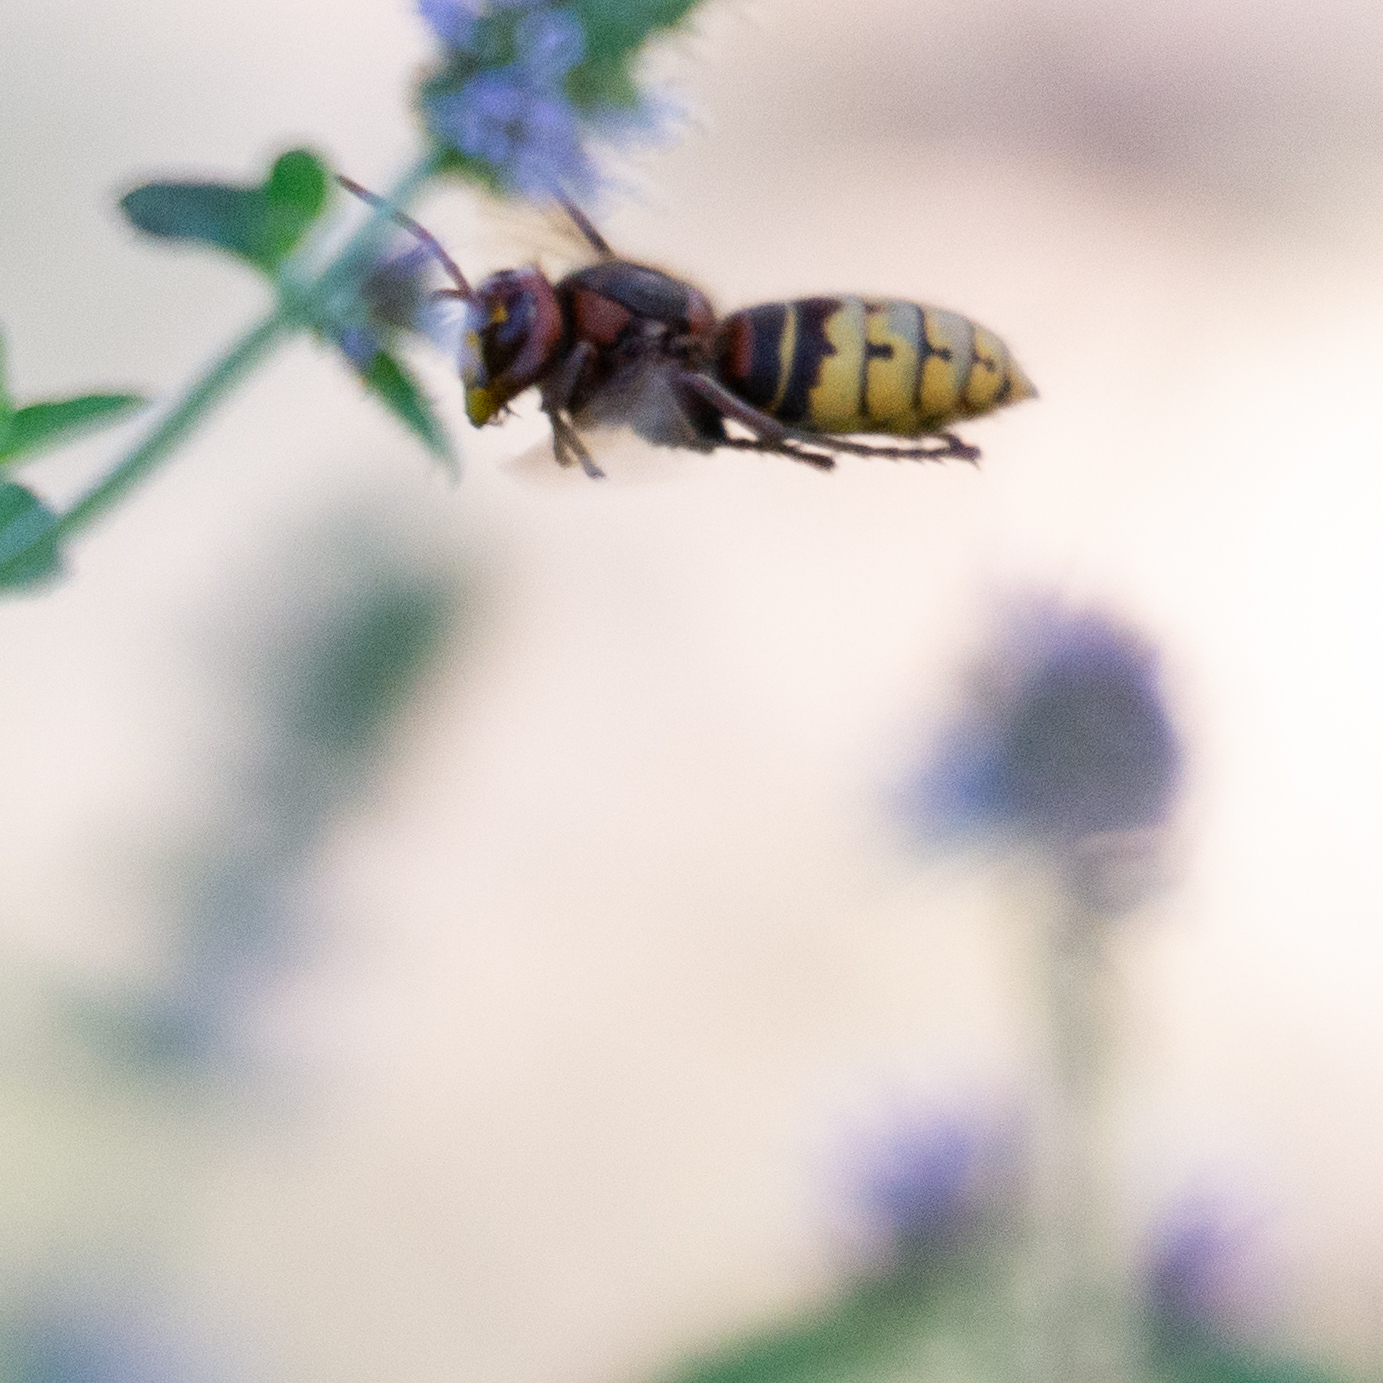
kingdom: Animalia
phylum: Arthropoda
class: Insecta
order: Hymenoptera
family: Vespidae
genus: Vespa
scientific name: Vespa crabro
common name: Hornet
